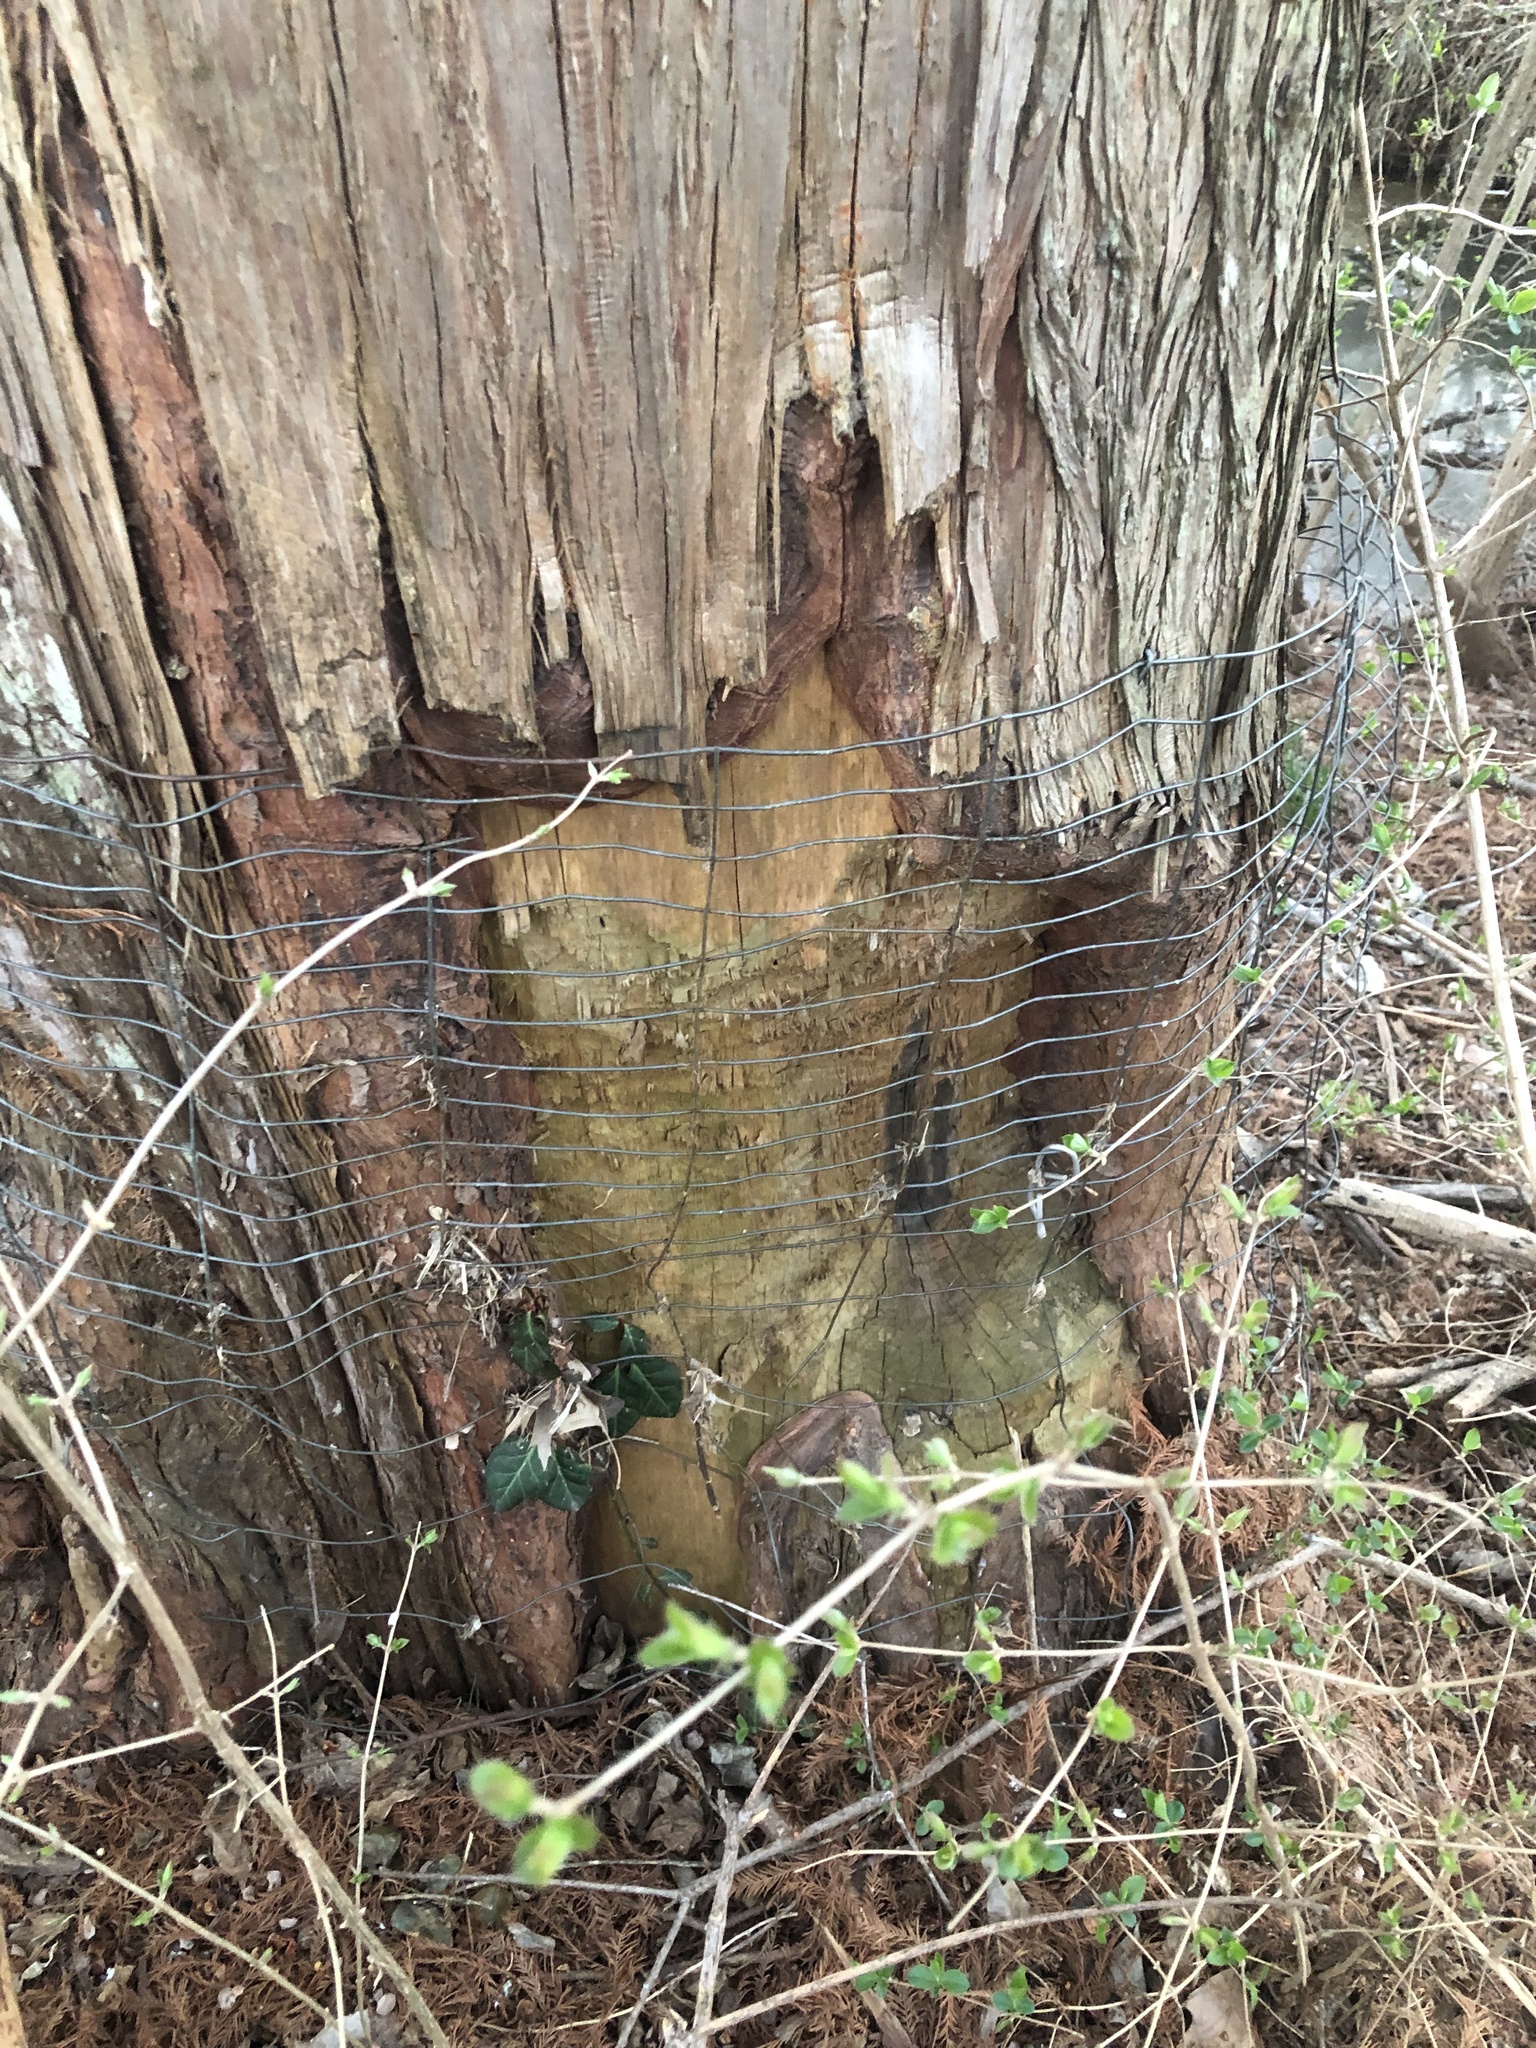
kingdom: Animalia
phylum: Chordata
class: Mammalia
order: Rodentia
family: Castoridae
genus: Castor
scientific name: Castor canadensis
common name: American beaver
